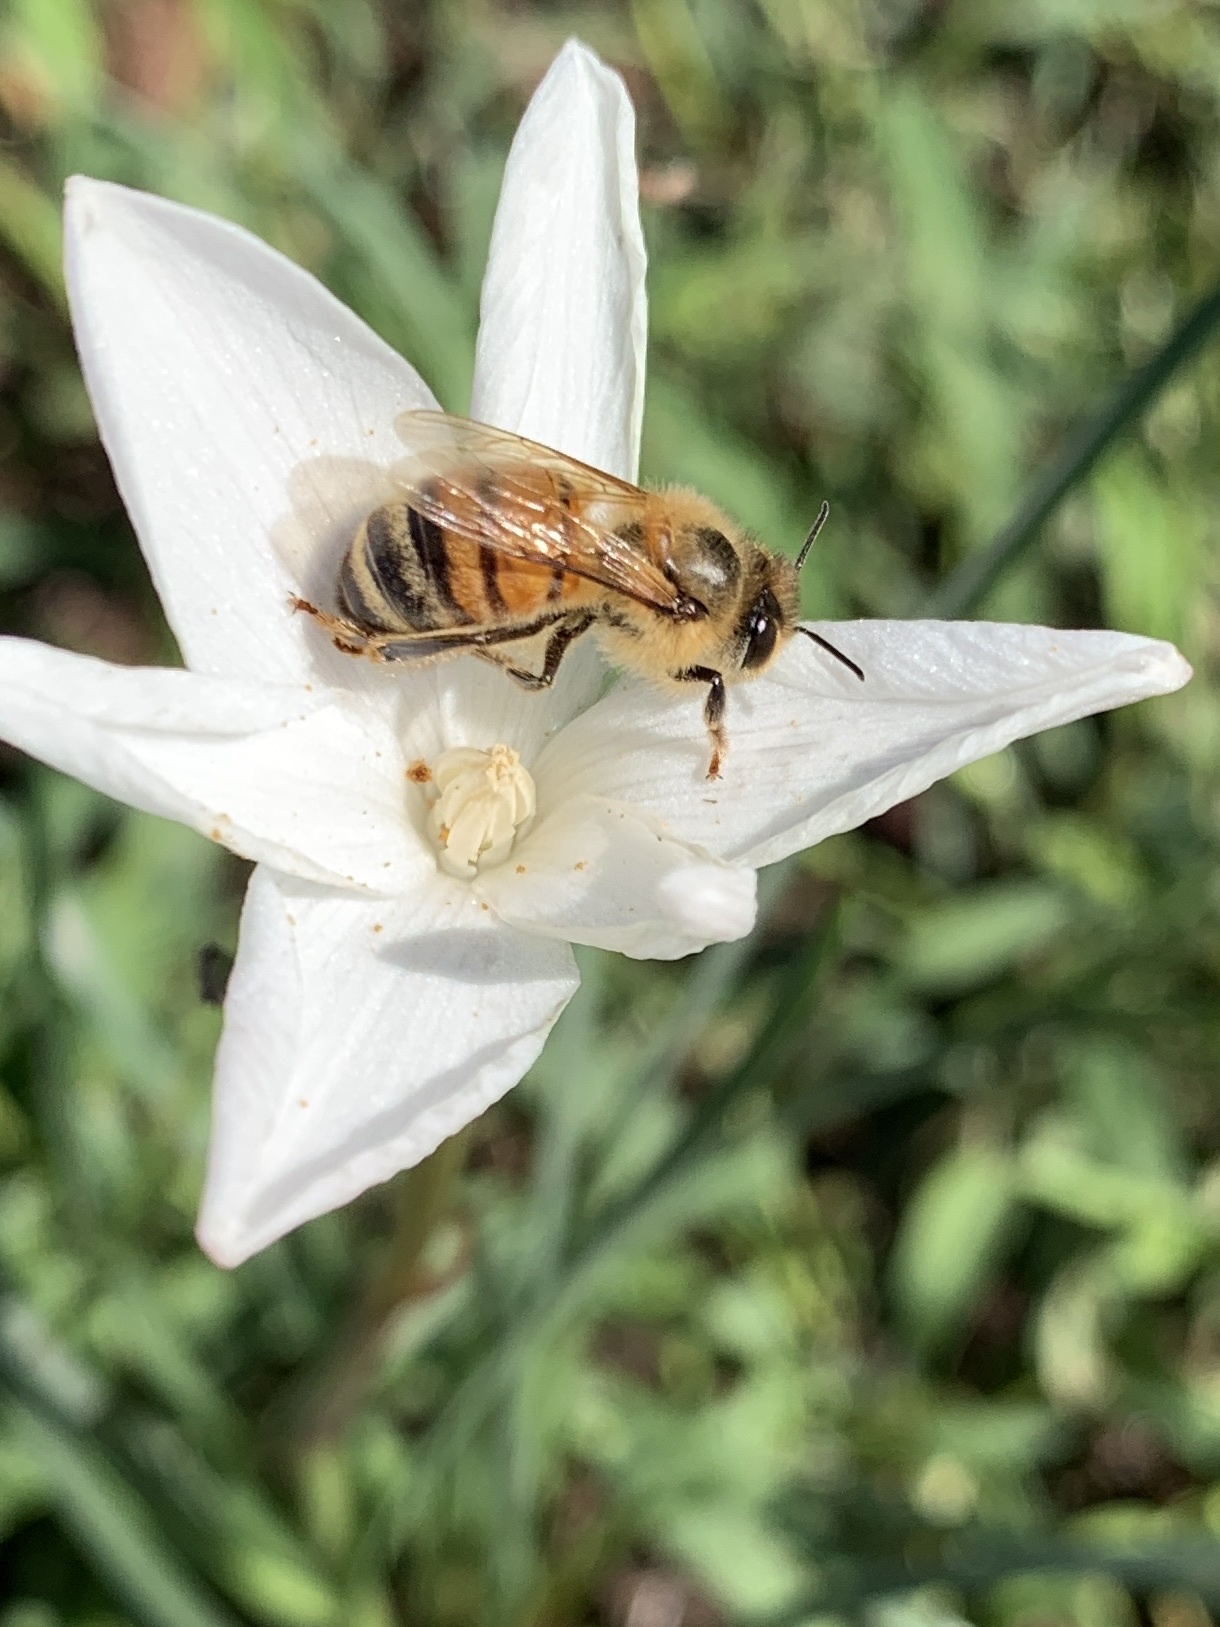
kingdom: Animalia
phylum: Arthropoda
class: Insecta
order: Hymenoptera
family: Apidae
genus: Apis
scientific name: Apis mellifera
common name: Honey bee
